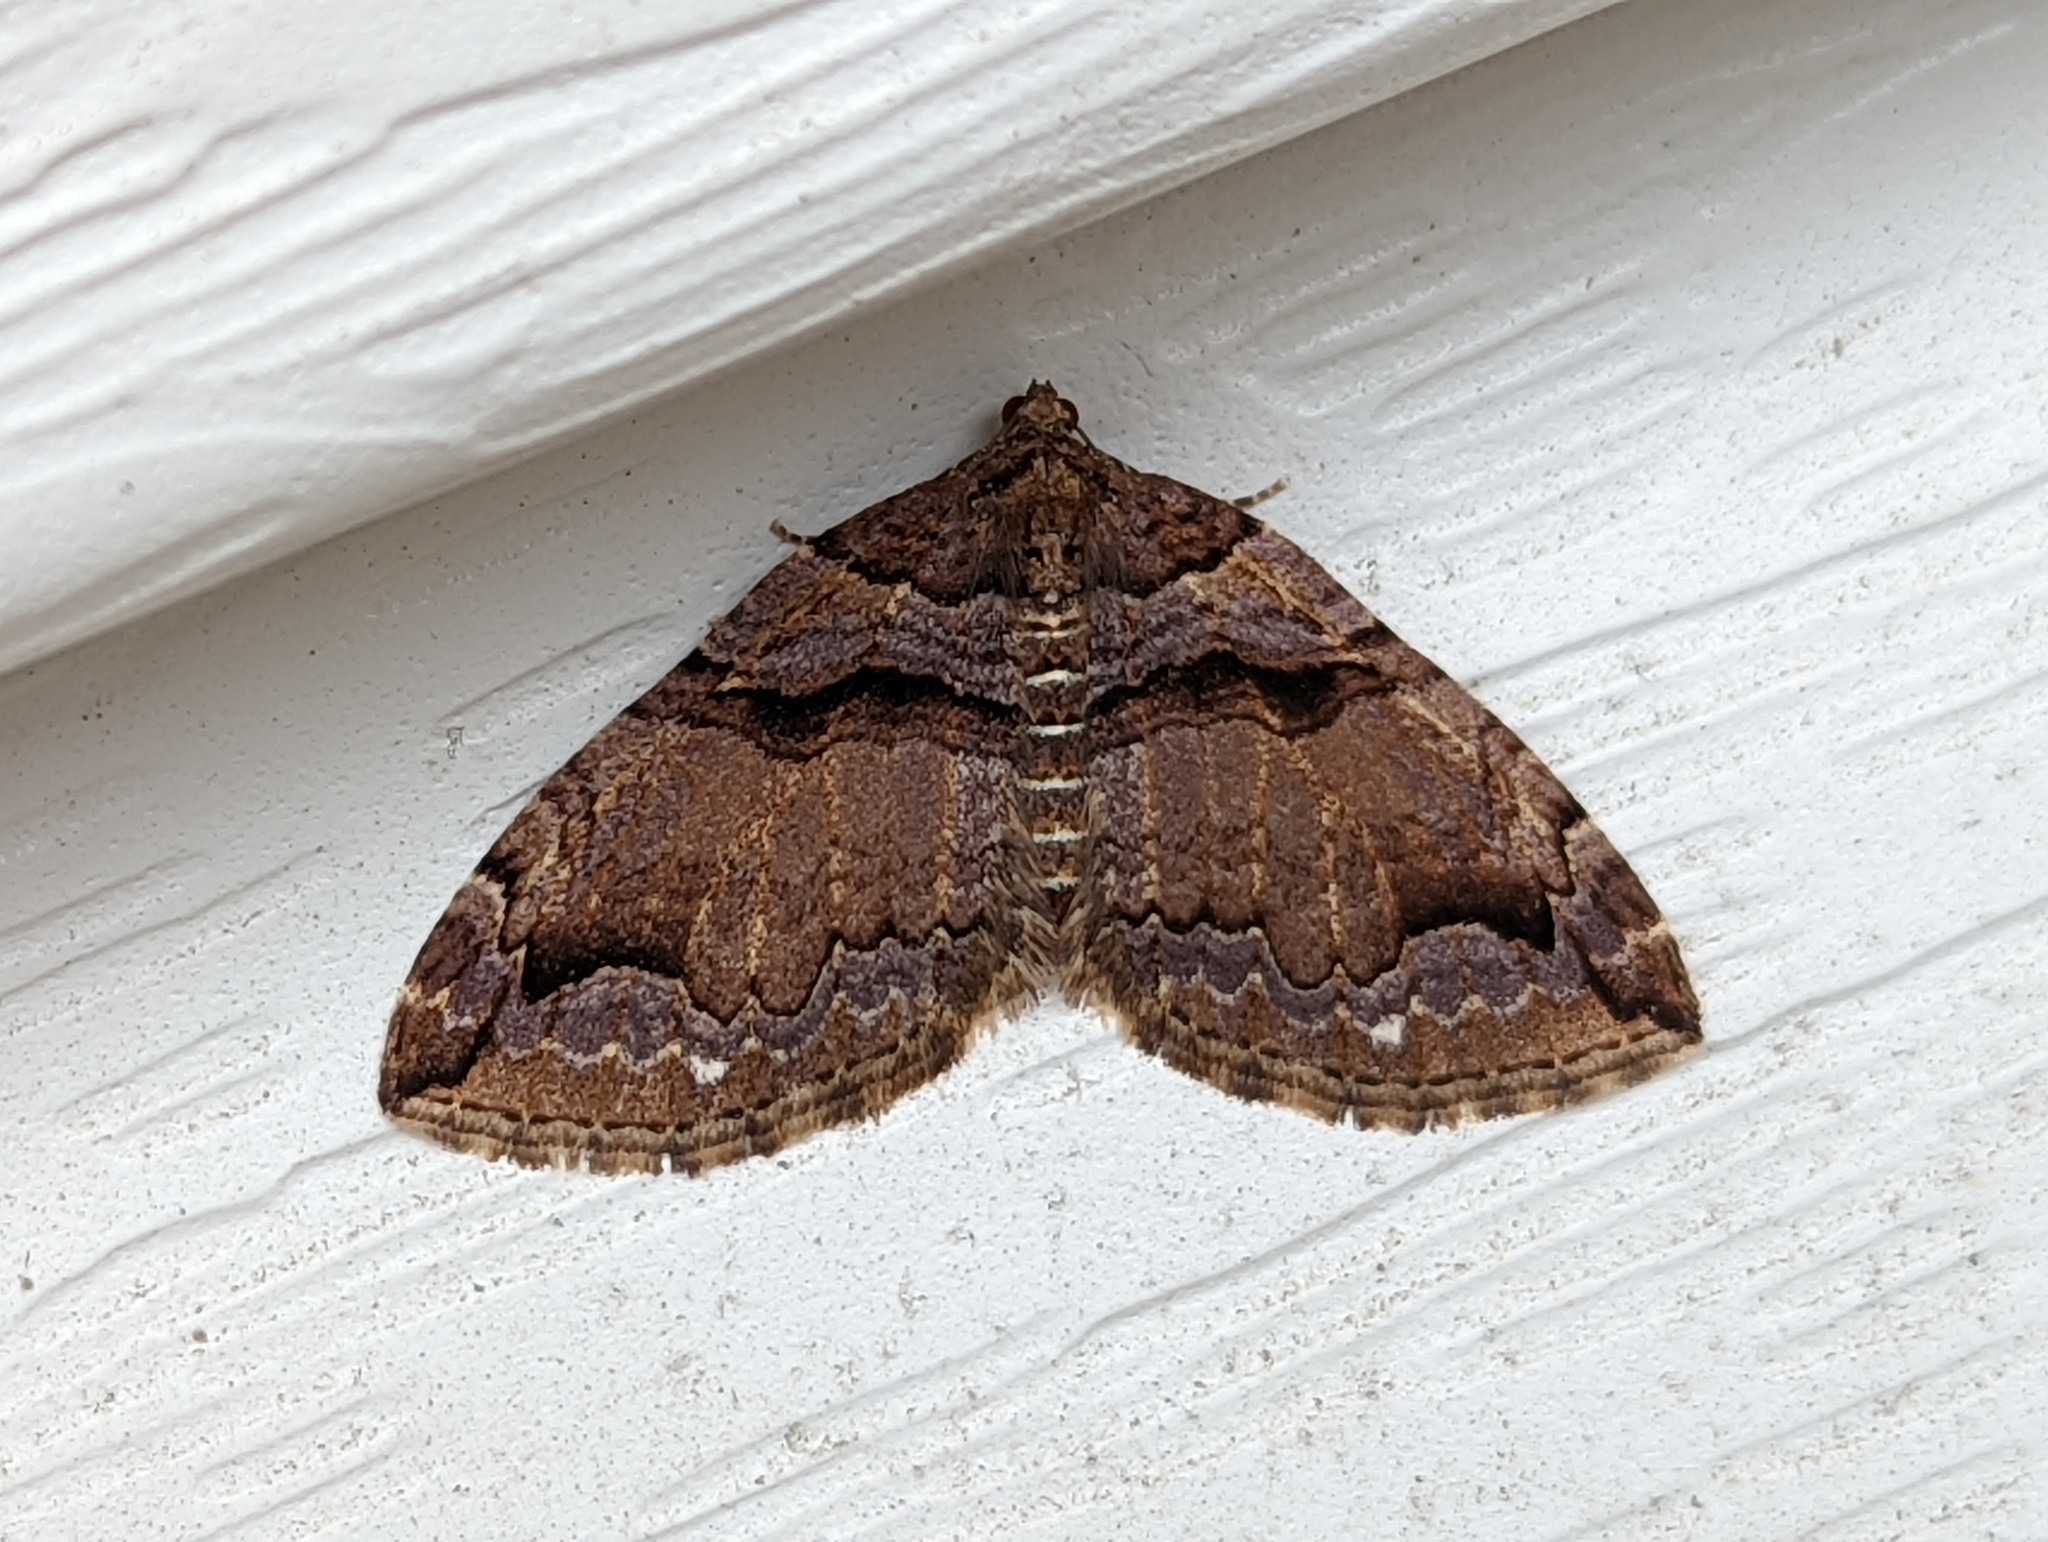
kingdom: Animalia
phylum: Arthropoda
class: Insecta
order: Lepidoptera
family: Geometridae
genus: Anticlea
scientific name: Anticlea vasiliata
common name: Variable carpet
